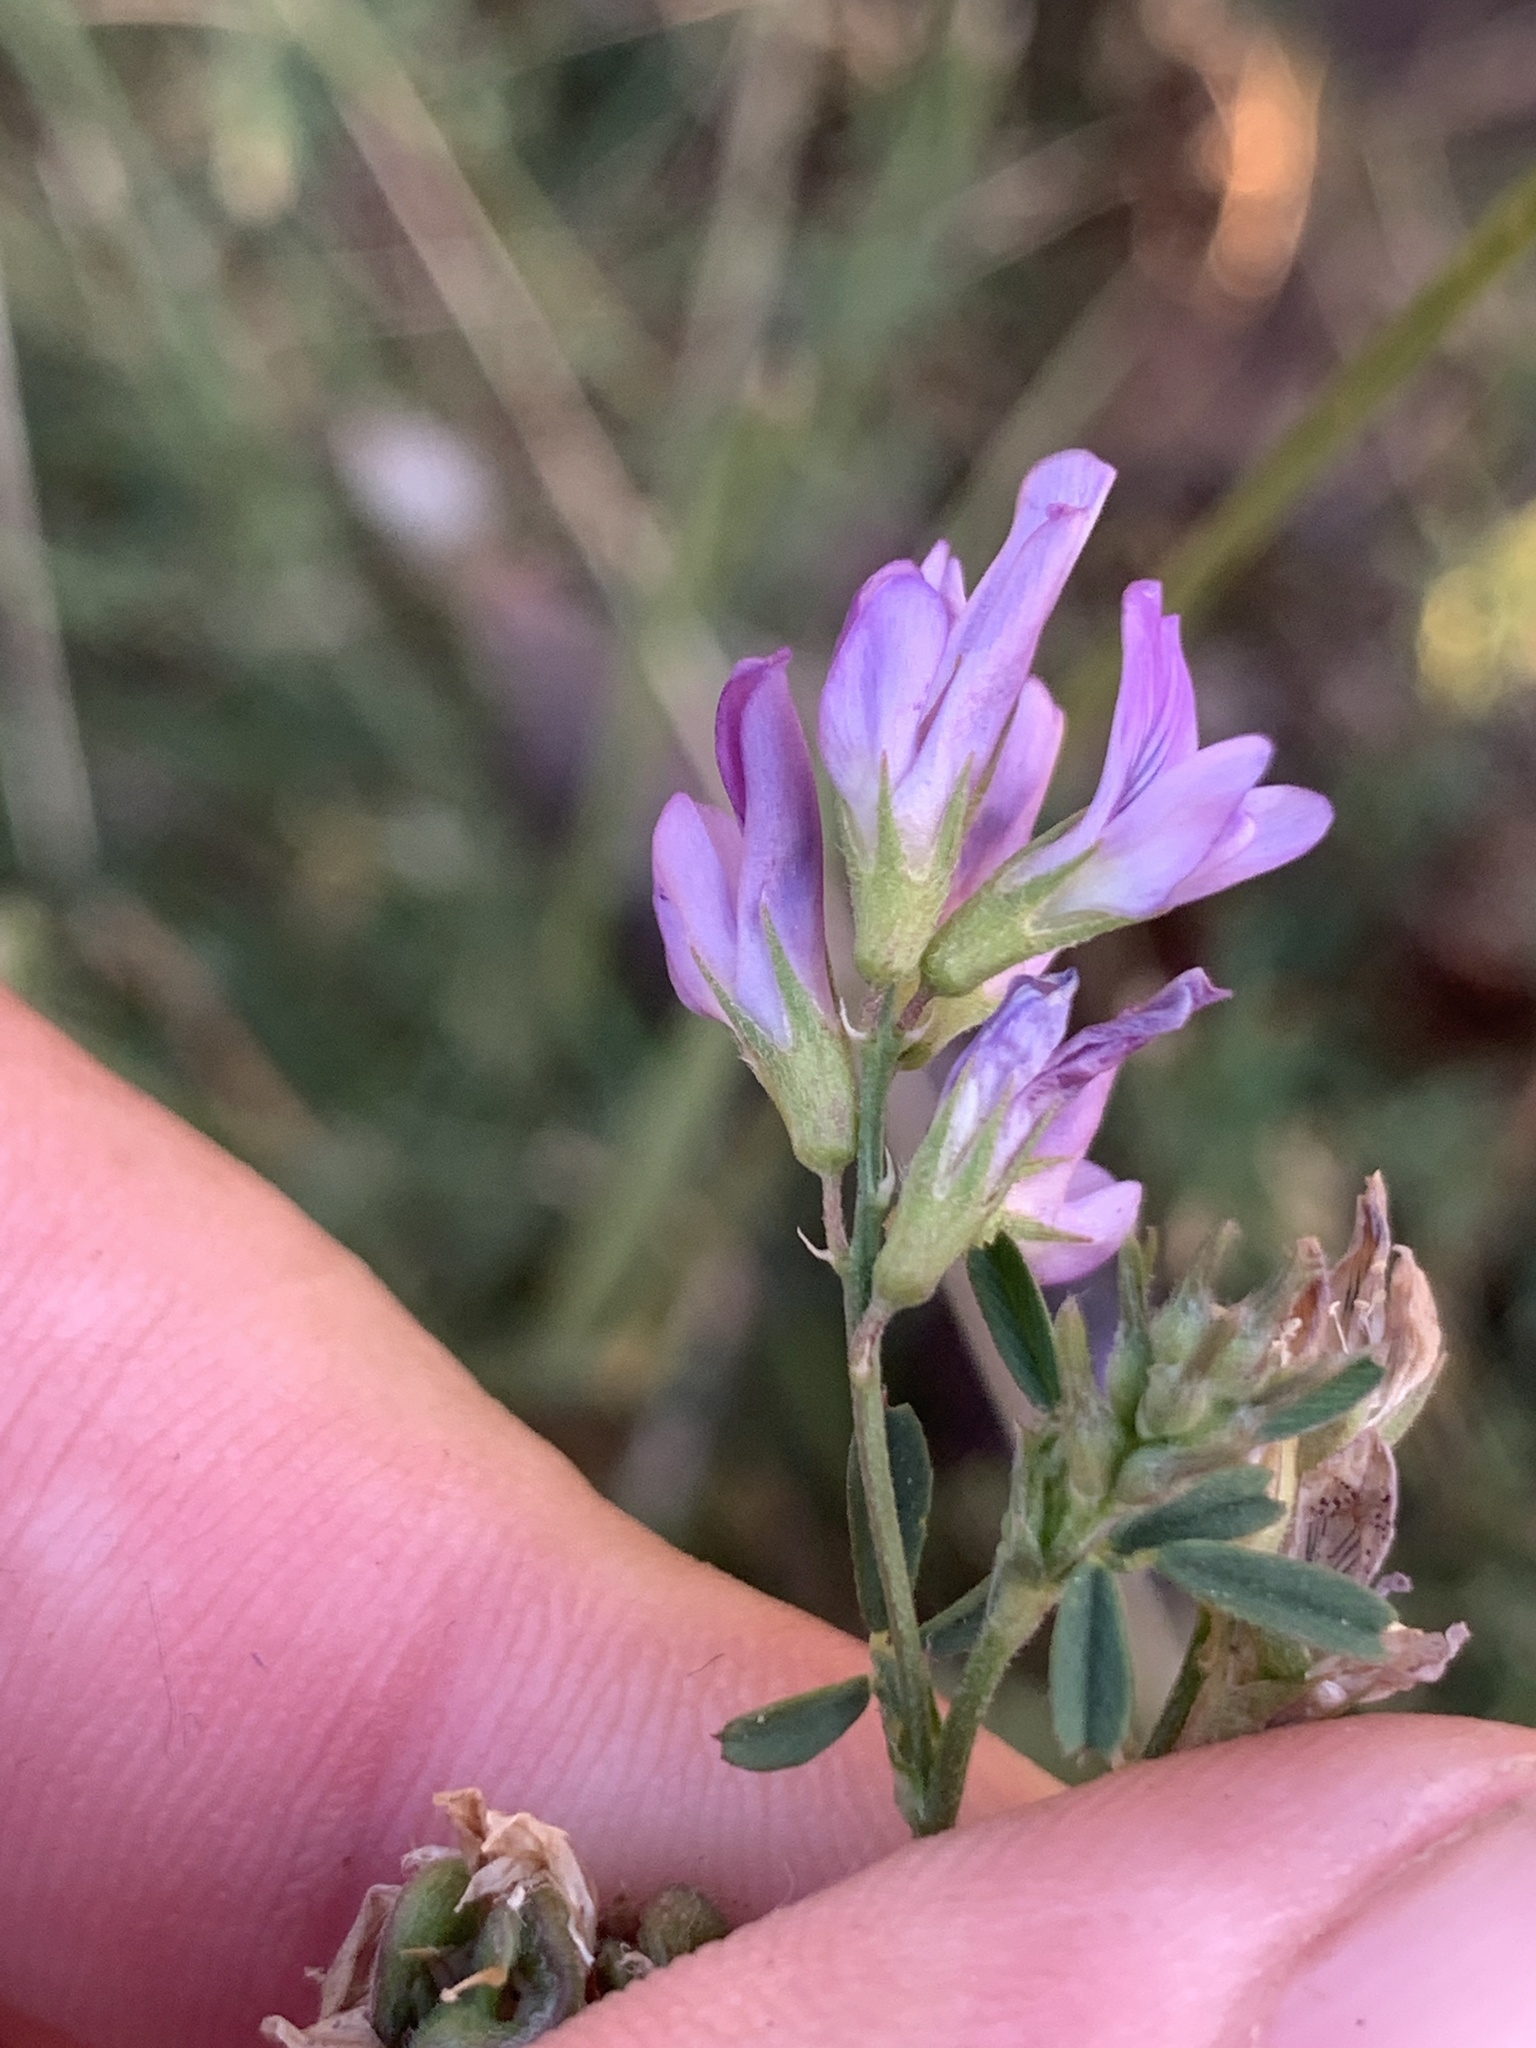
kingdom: Plantae
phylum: Tracheophyta
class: Magnoliopsida
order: Fabales
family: Fabaceae
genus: Medicago
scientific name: Medicago sativa
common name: Alfalfa
